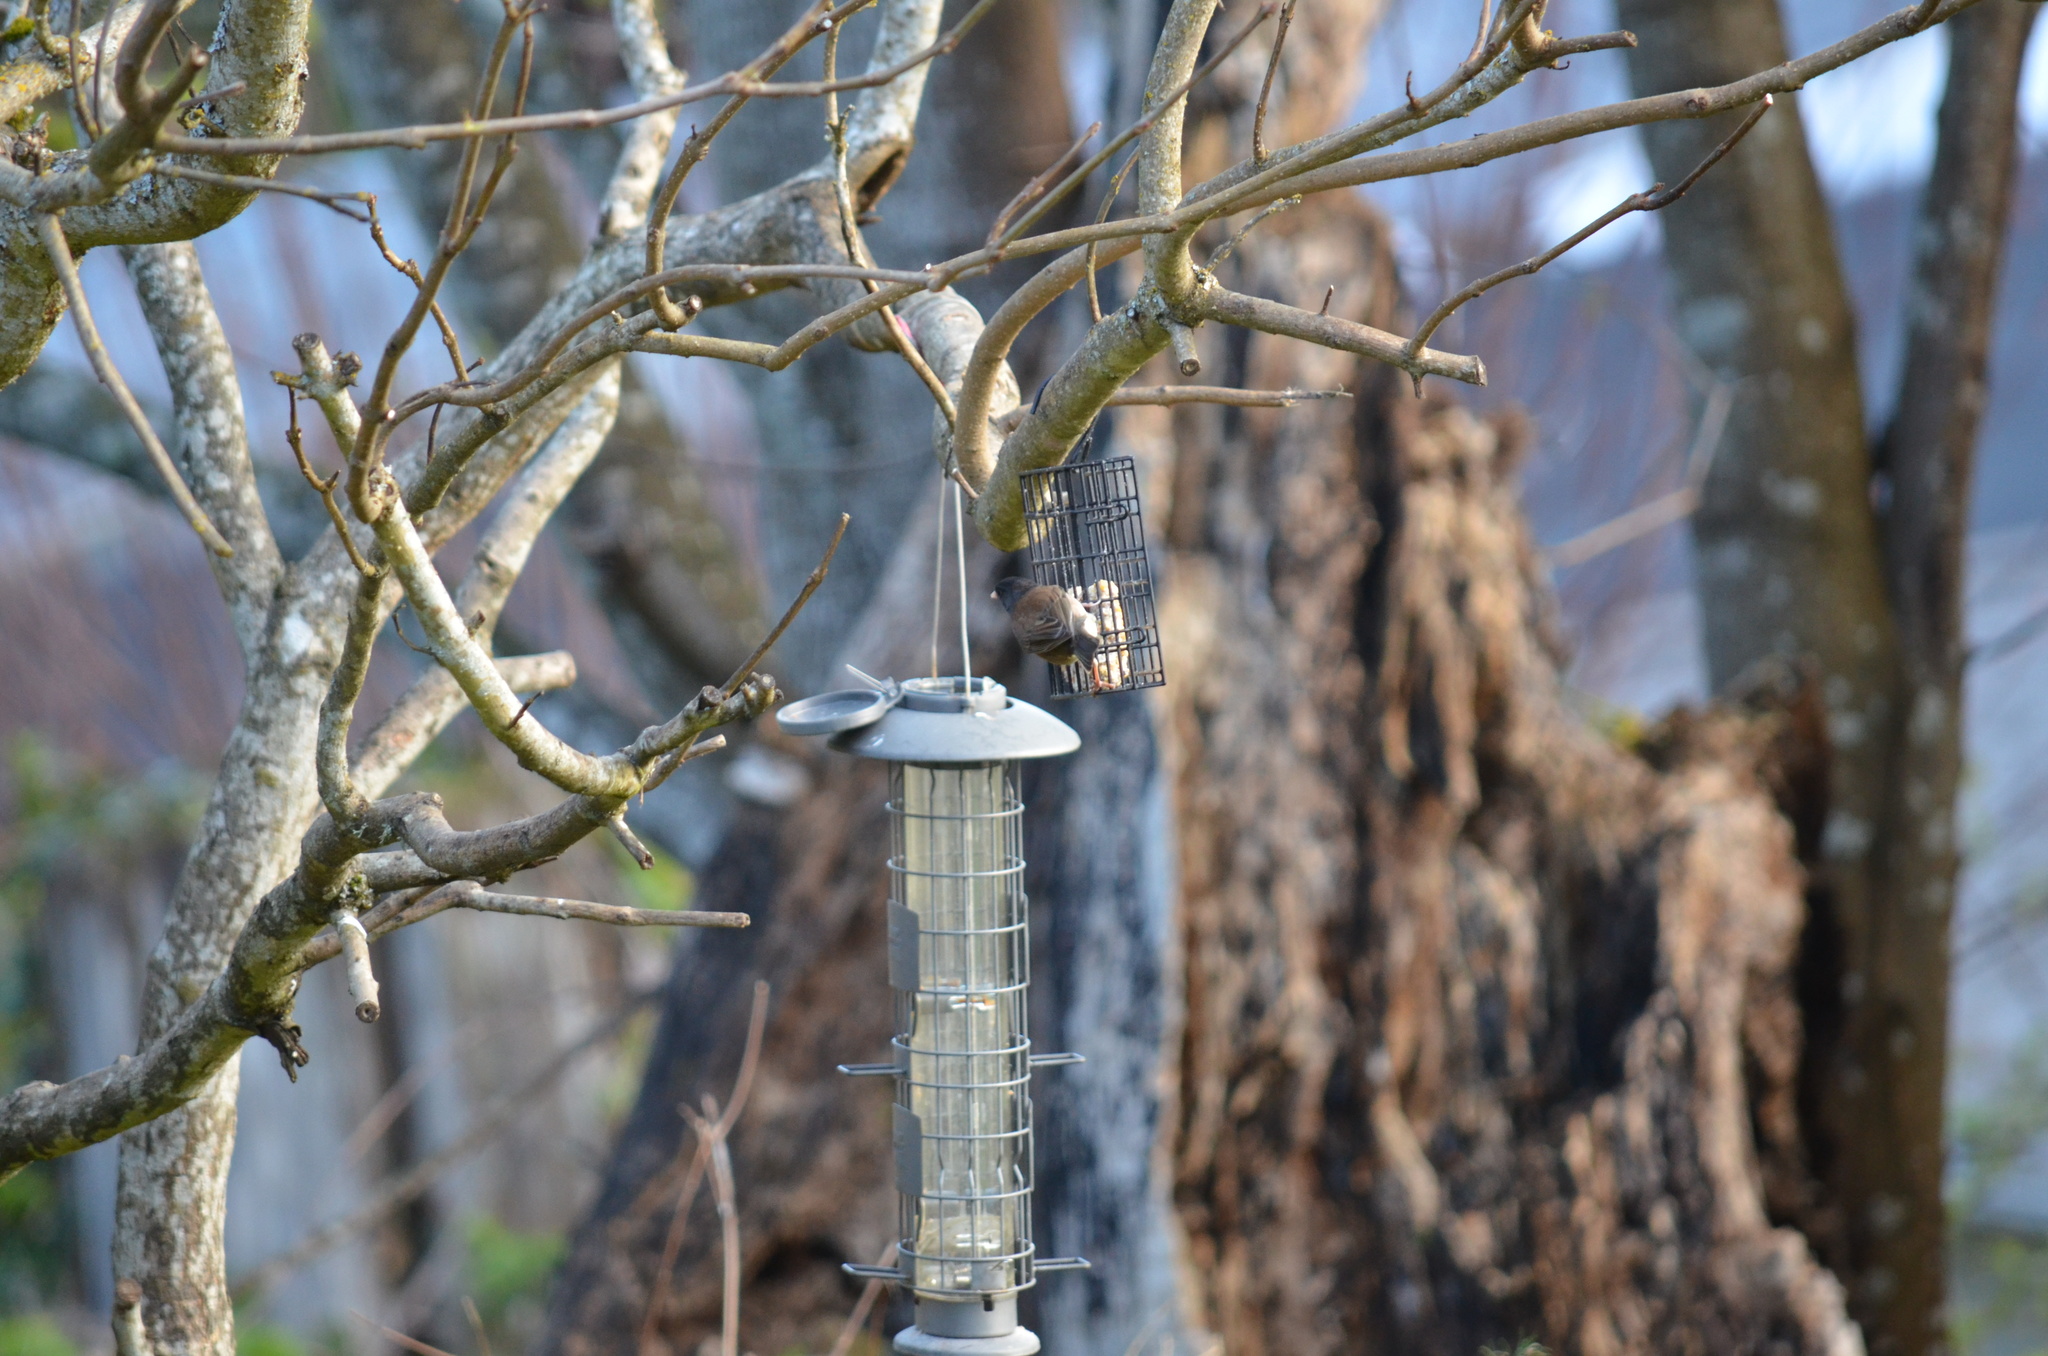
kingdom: Animalia
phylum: Chordata
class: Aves
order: Passeriformes
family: Passerellidae
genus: Junco
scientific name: Junco hyemalis
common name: Dark-eyed junco
